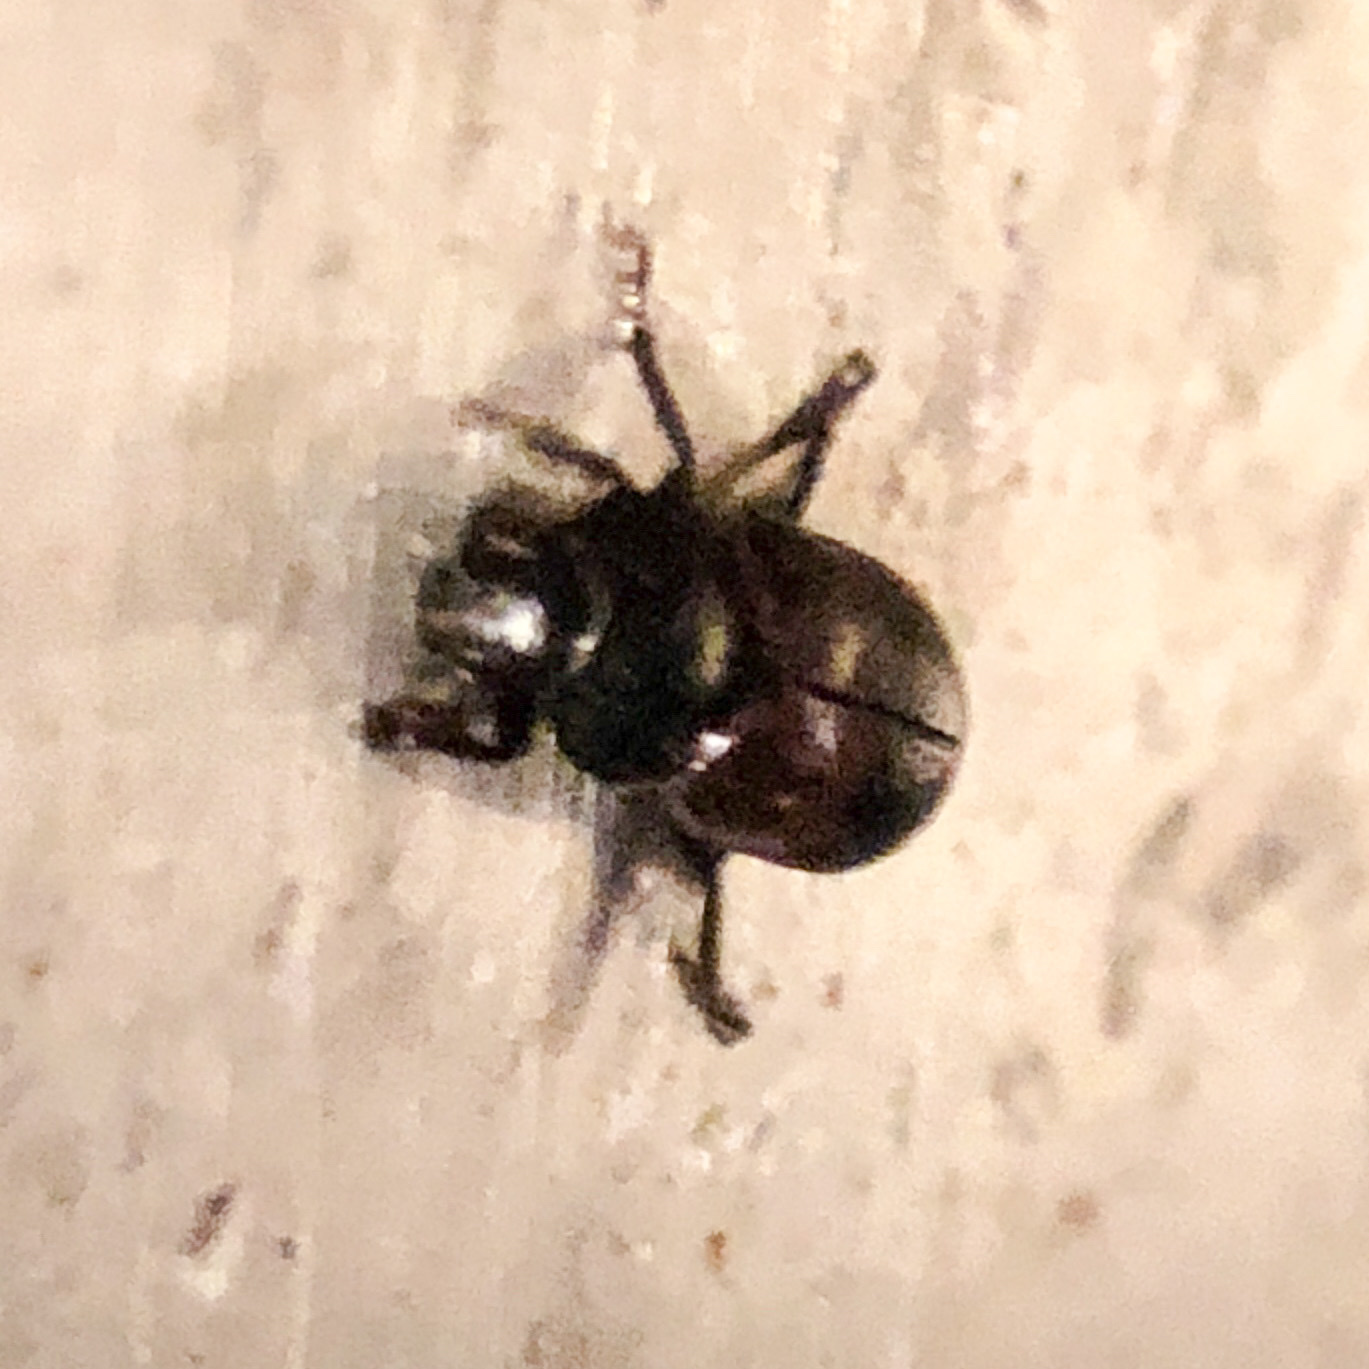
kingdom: Animalia
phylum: Arthropoda
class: Insecta
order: Coleoptera
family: Dermestidae
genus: Dermestes
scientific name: Dermestes lardarius
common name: Larder beetle
